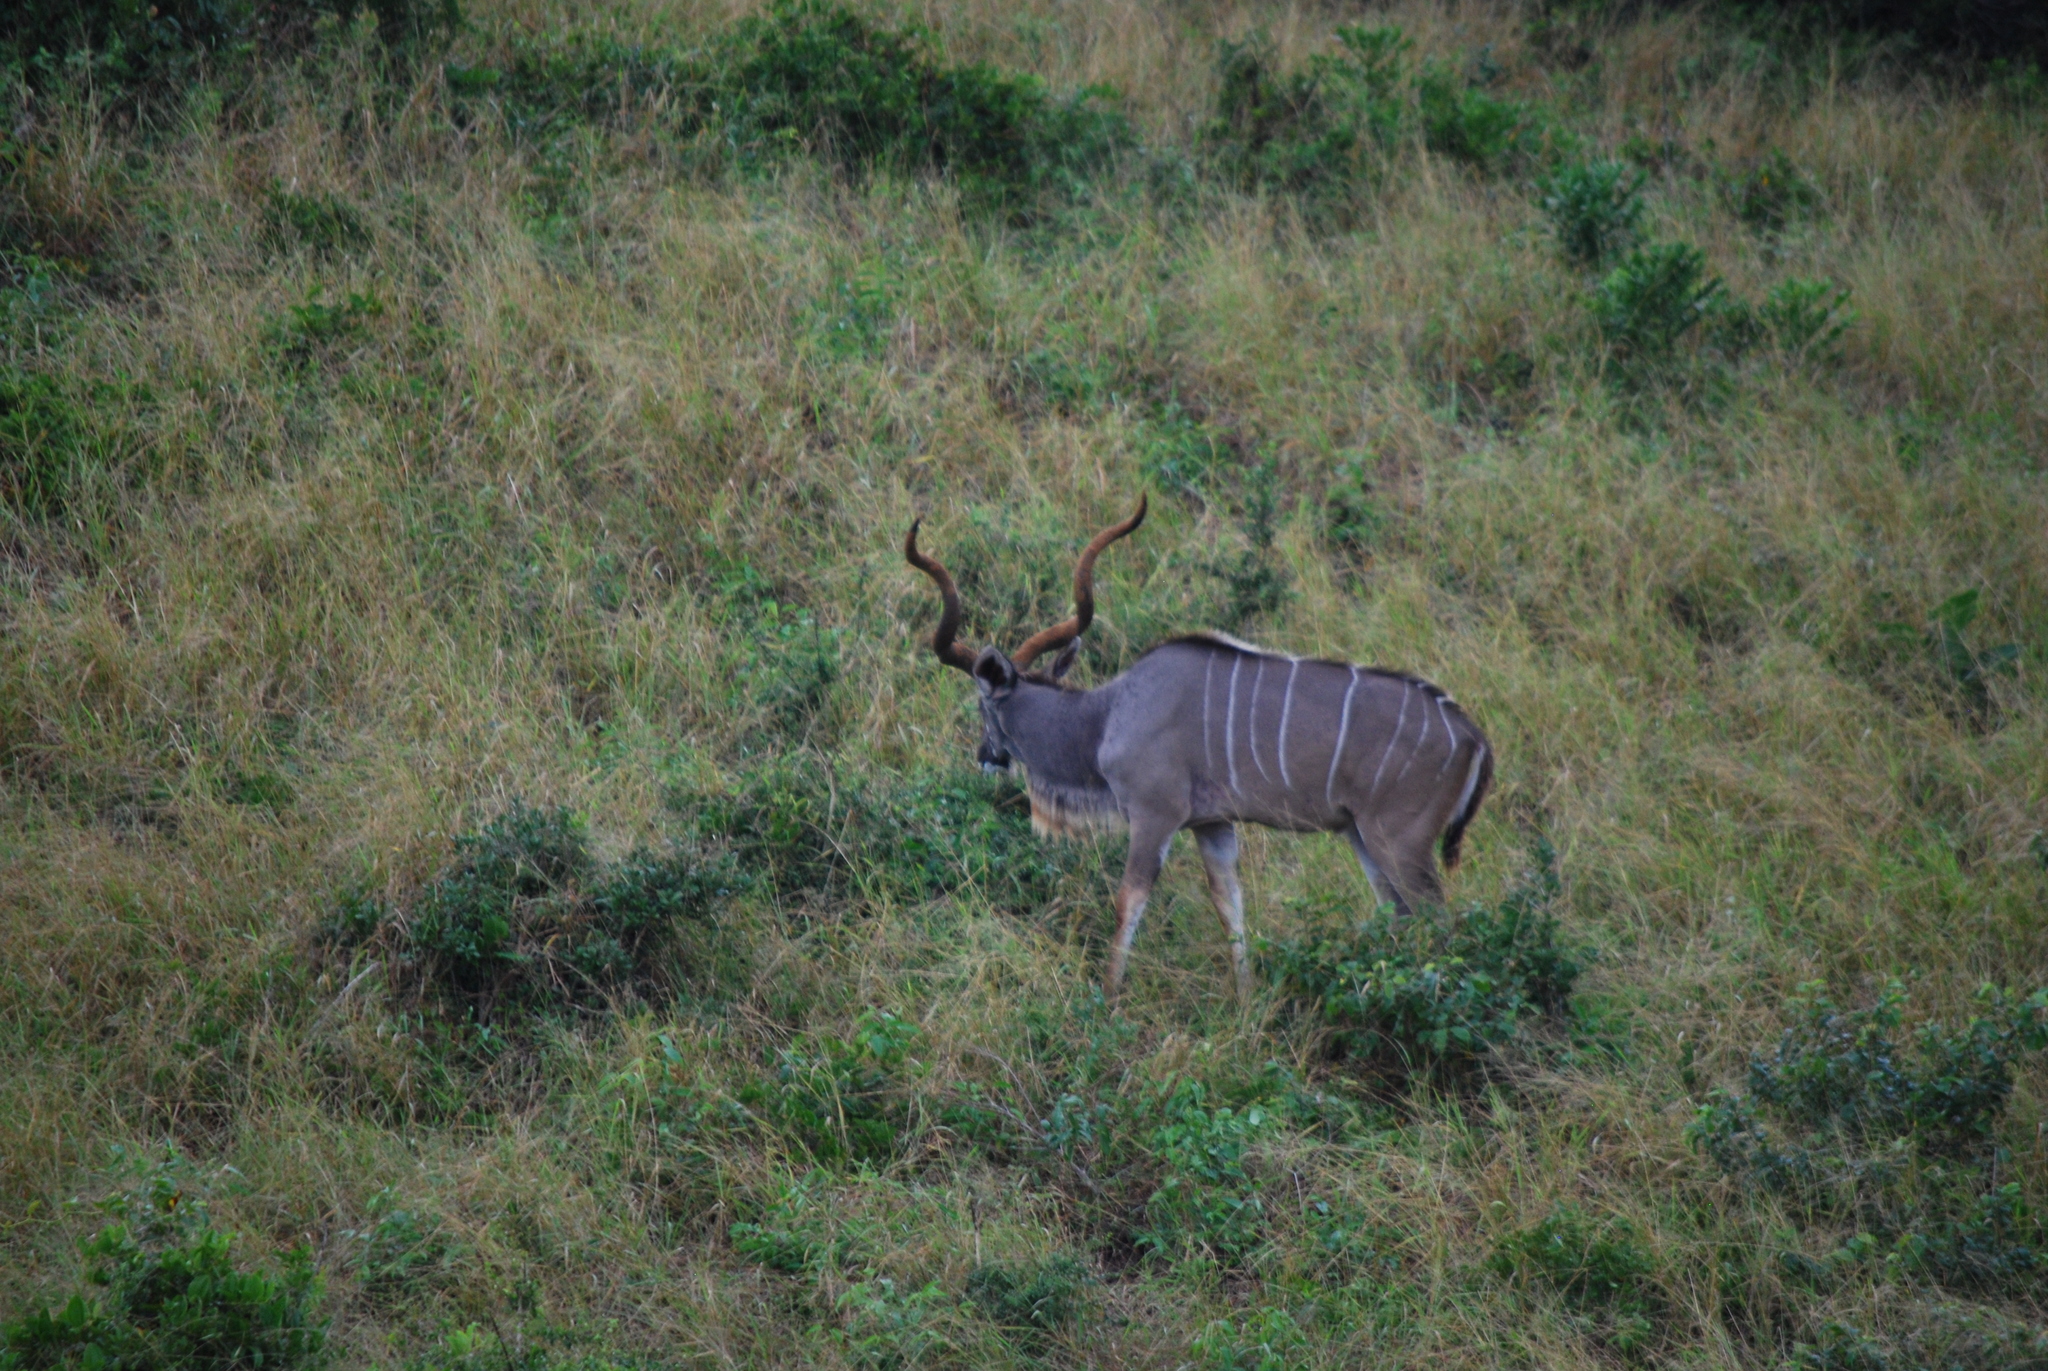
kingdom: Animalia
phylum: Chordata
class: Mammalia
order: Artiodactyla
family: Bovidae
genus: Tragelaphus
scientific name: Tragelaphus strepsiceros
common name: Greater kudu
